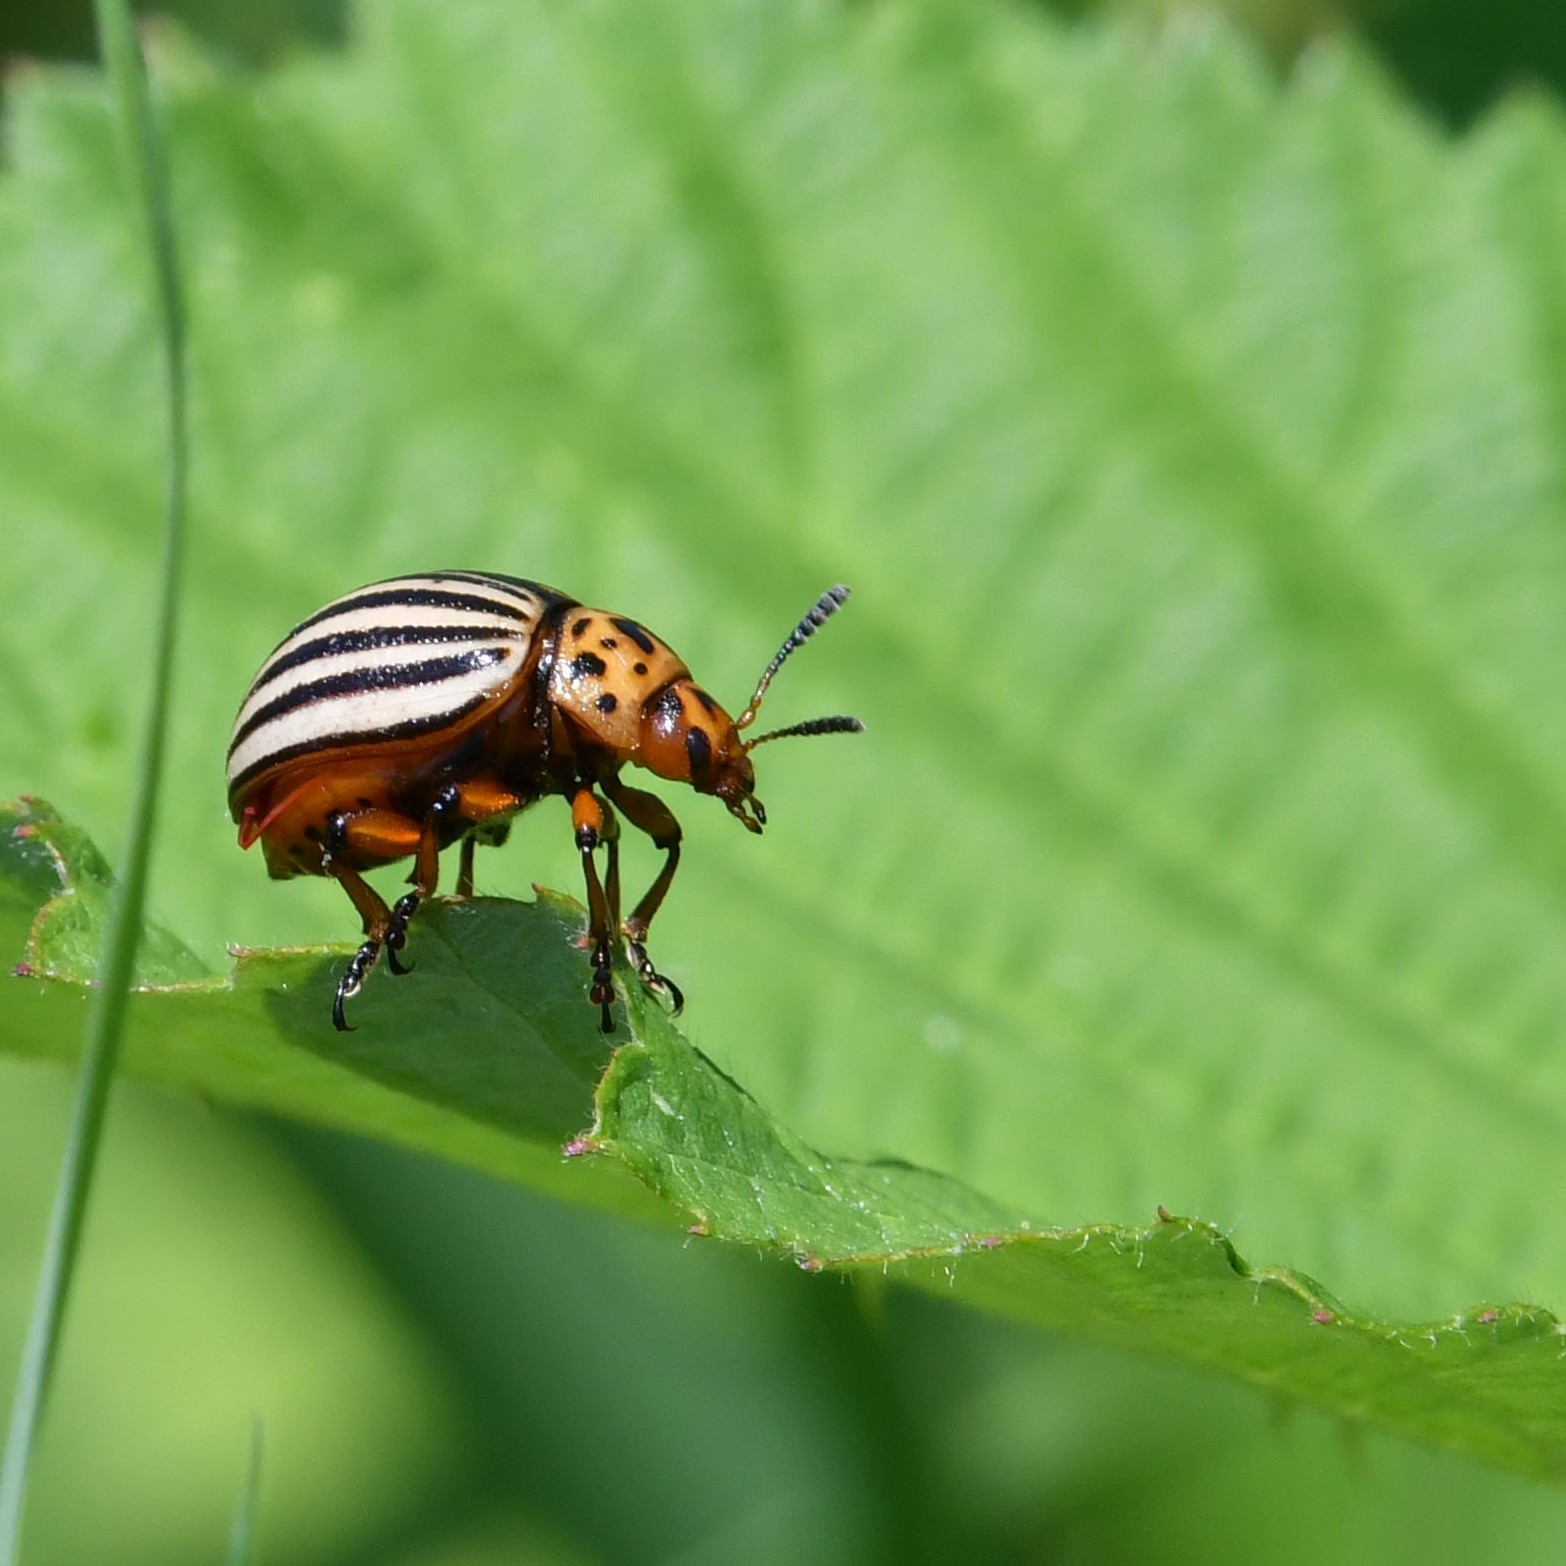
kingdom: Animalia
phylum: Arthropoda
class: Insecta
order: Coleoptera
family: Chrysomelidae
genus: Leptinotarsa
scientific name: Leptinotarsa decemlineata
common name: Colorado potato beetle
